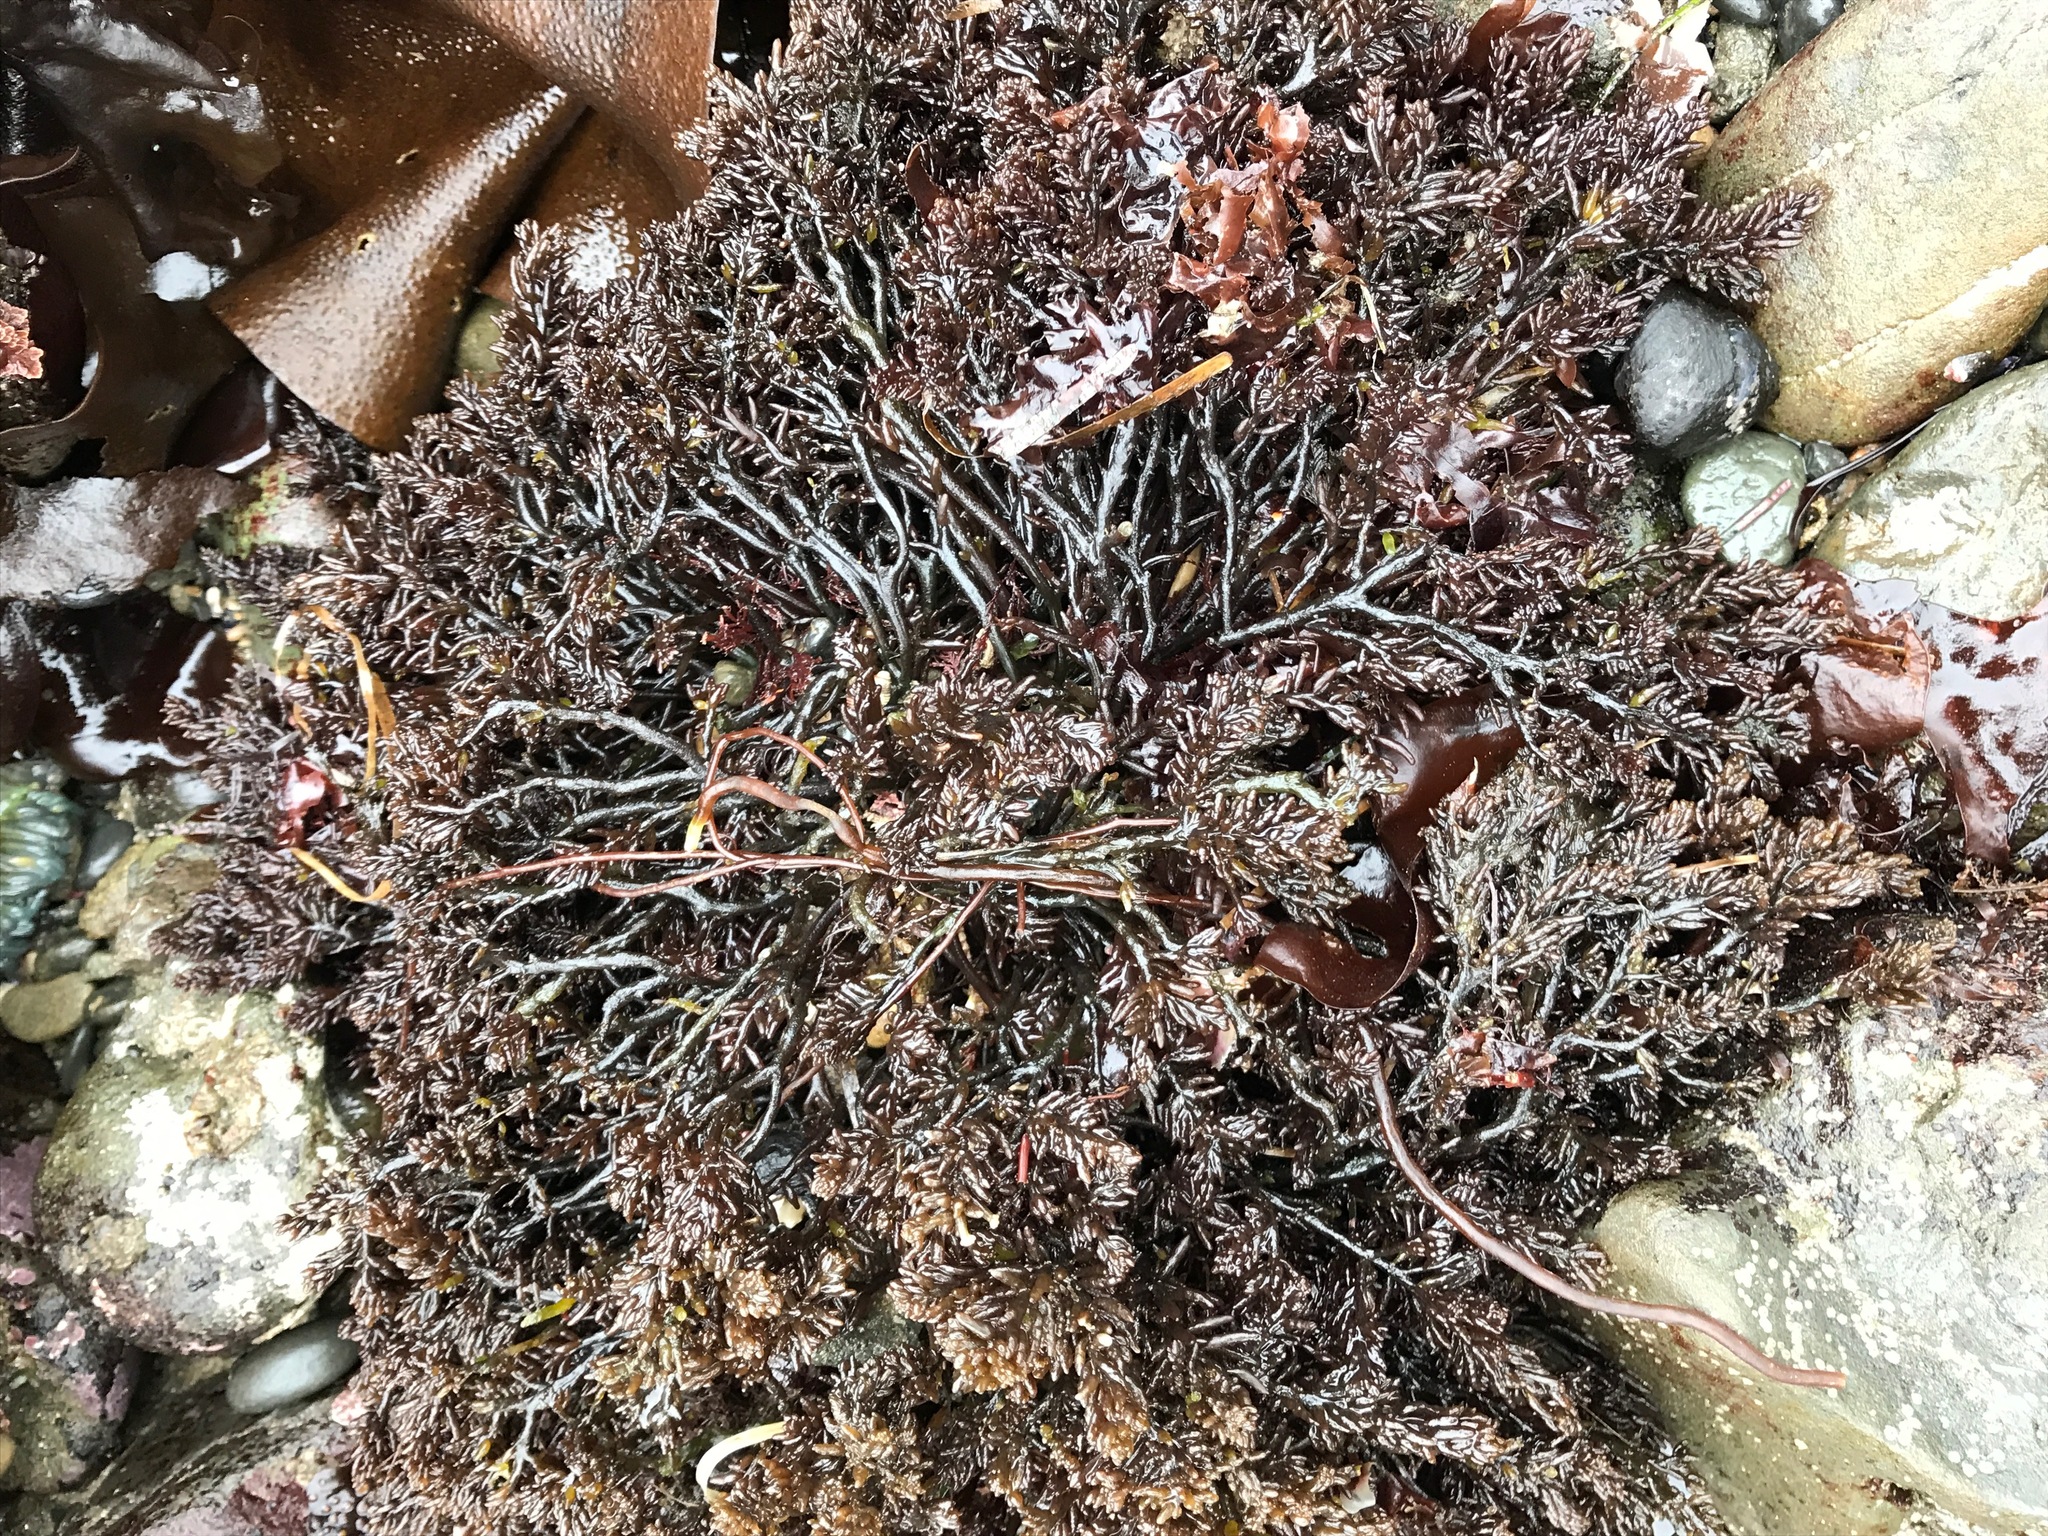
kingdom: Plantae
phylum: Rhodophyta
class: Florideophyceae
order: Rhodymeniales
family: Champiaceae
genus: Neogastroclonium
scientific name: Neogastroclonium subarticulatum
